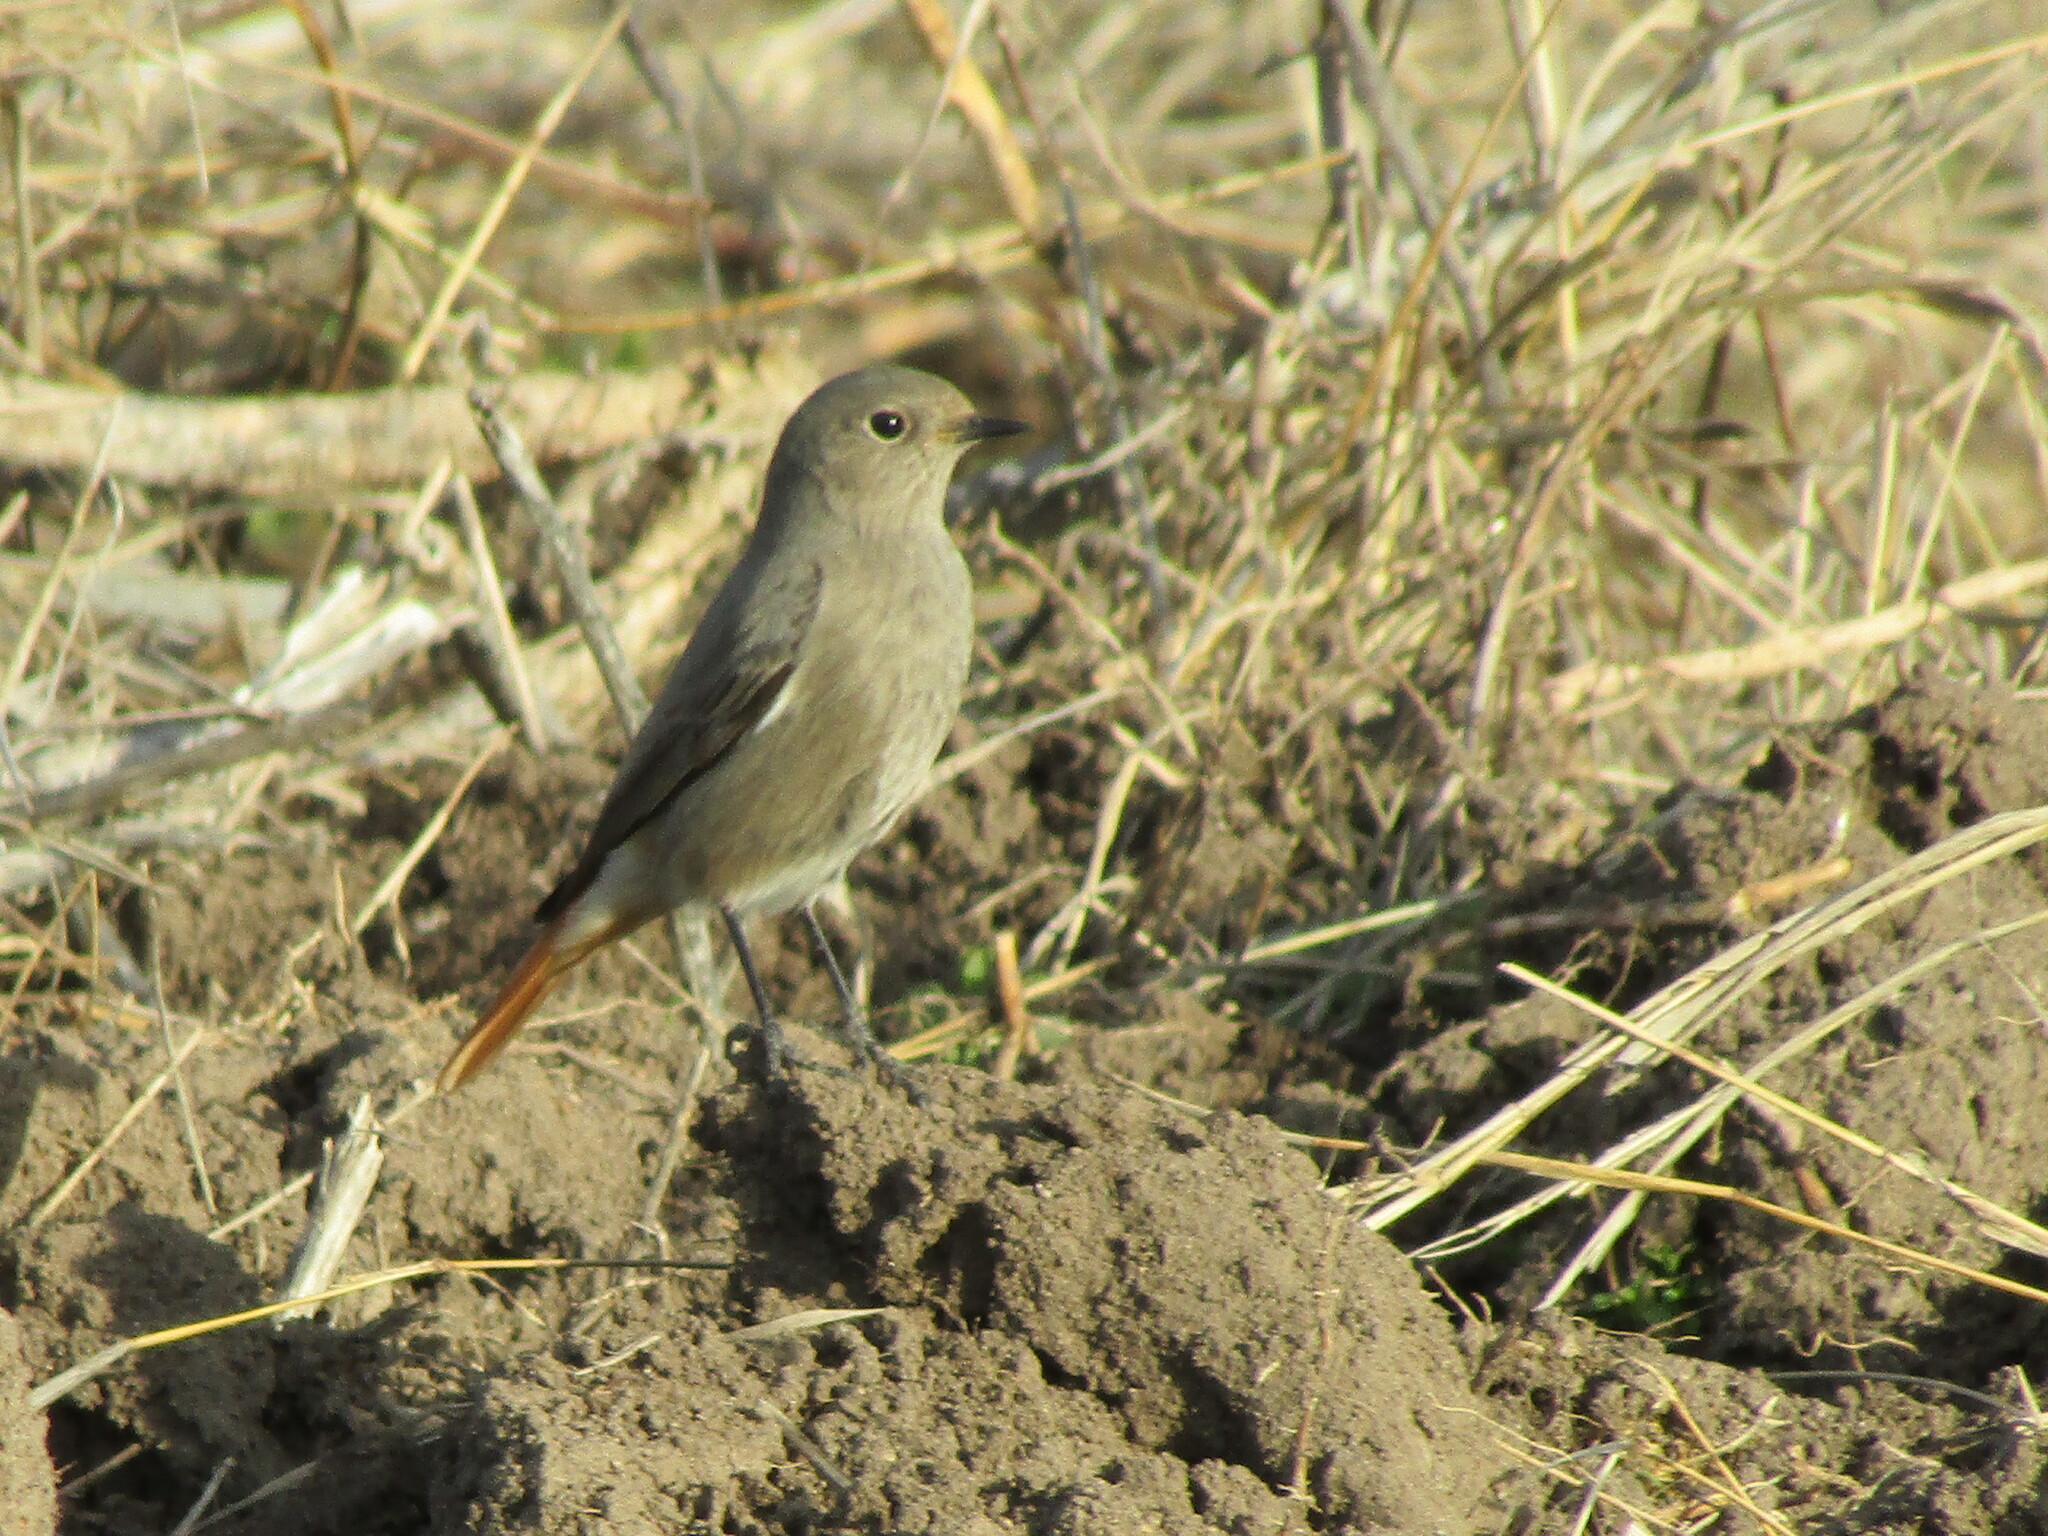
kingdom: Animalia
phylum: Chordata
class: Aves
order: Passeriformes
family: Muscicapidae
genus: Phoenicurus
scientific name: Phoenicurus ochruros
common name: Black redstart
